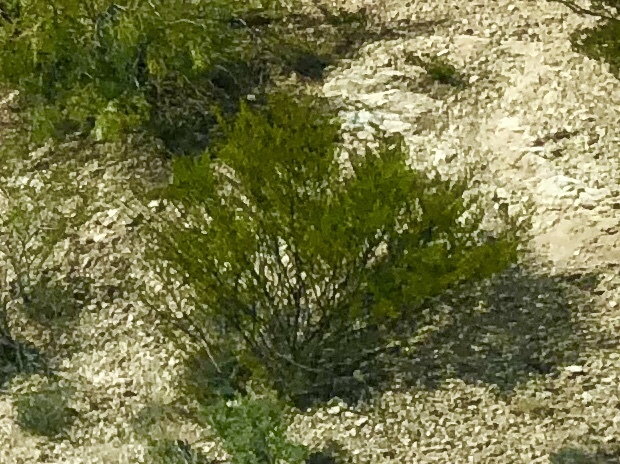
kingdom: Plantae
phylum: Tracheophyta
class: Magnoliopsida
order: Zygophyllales
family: Zygophyllaceae
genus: Larrea
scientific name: Larrea tridentata
